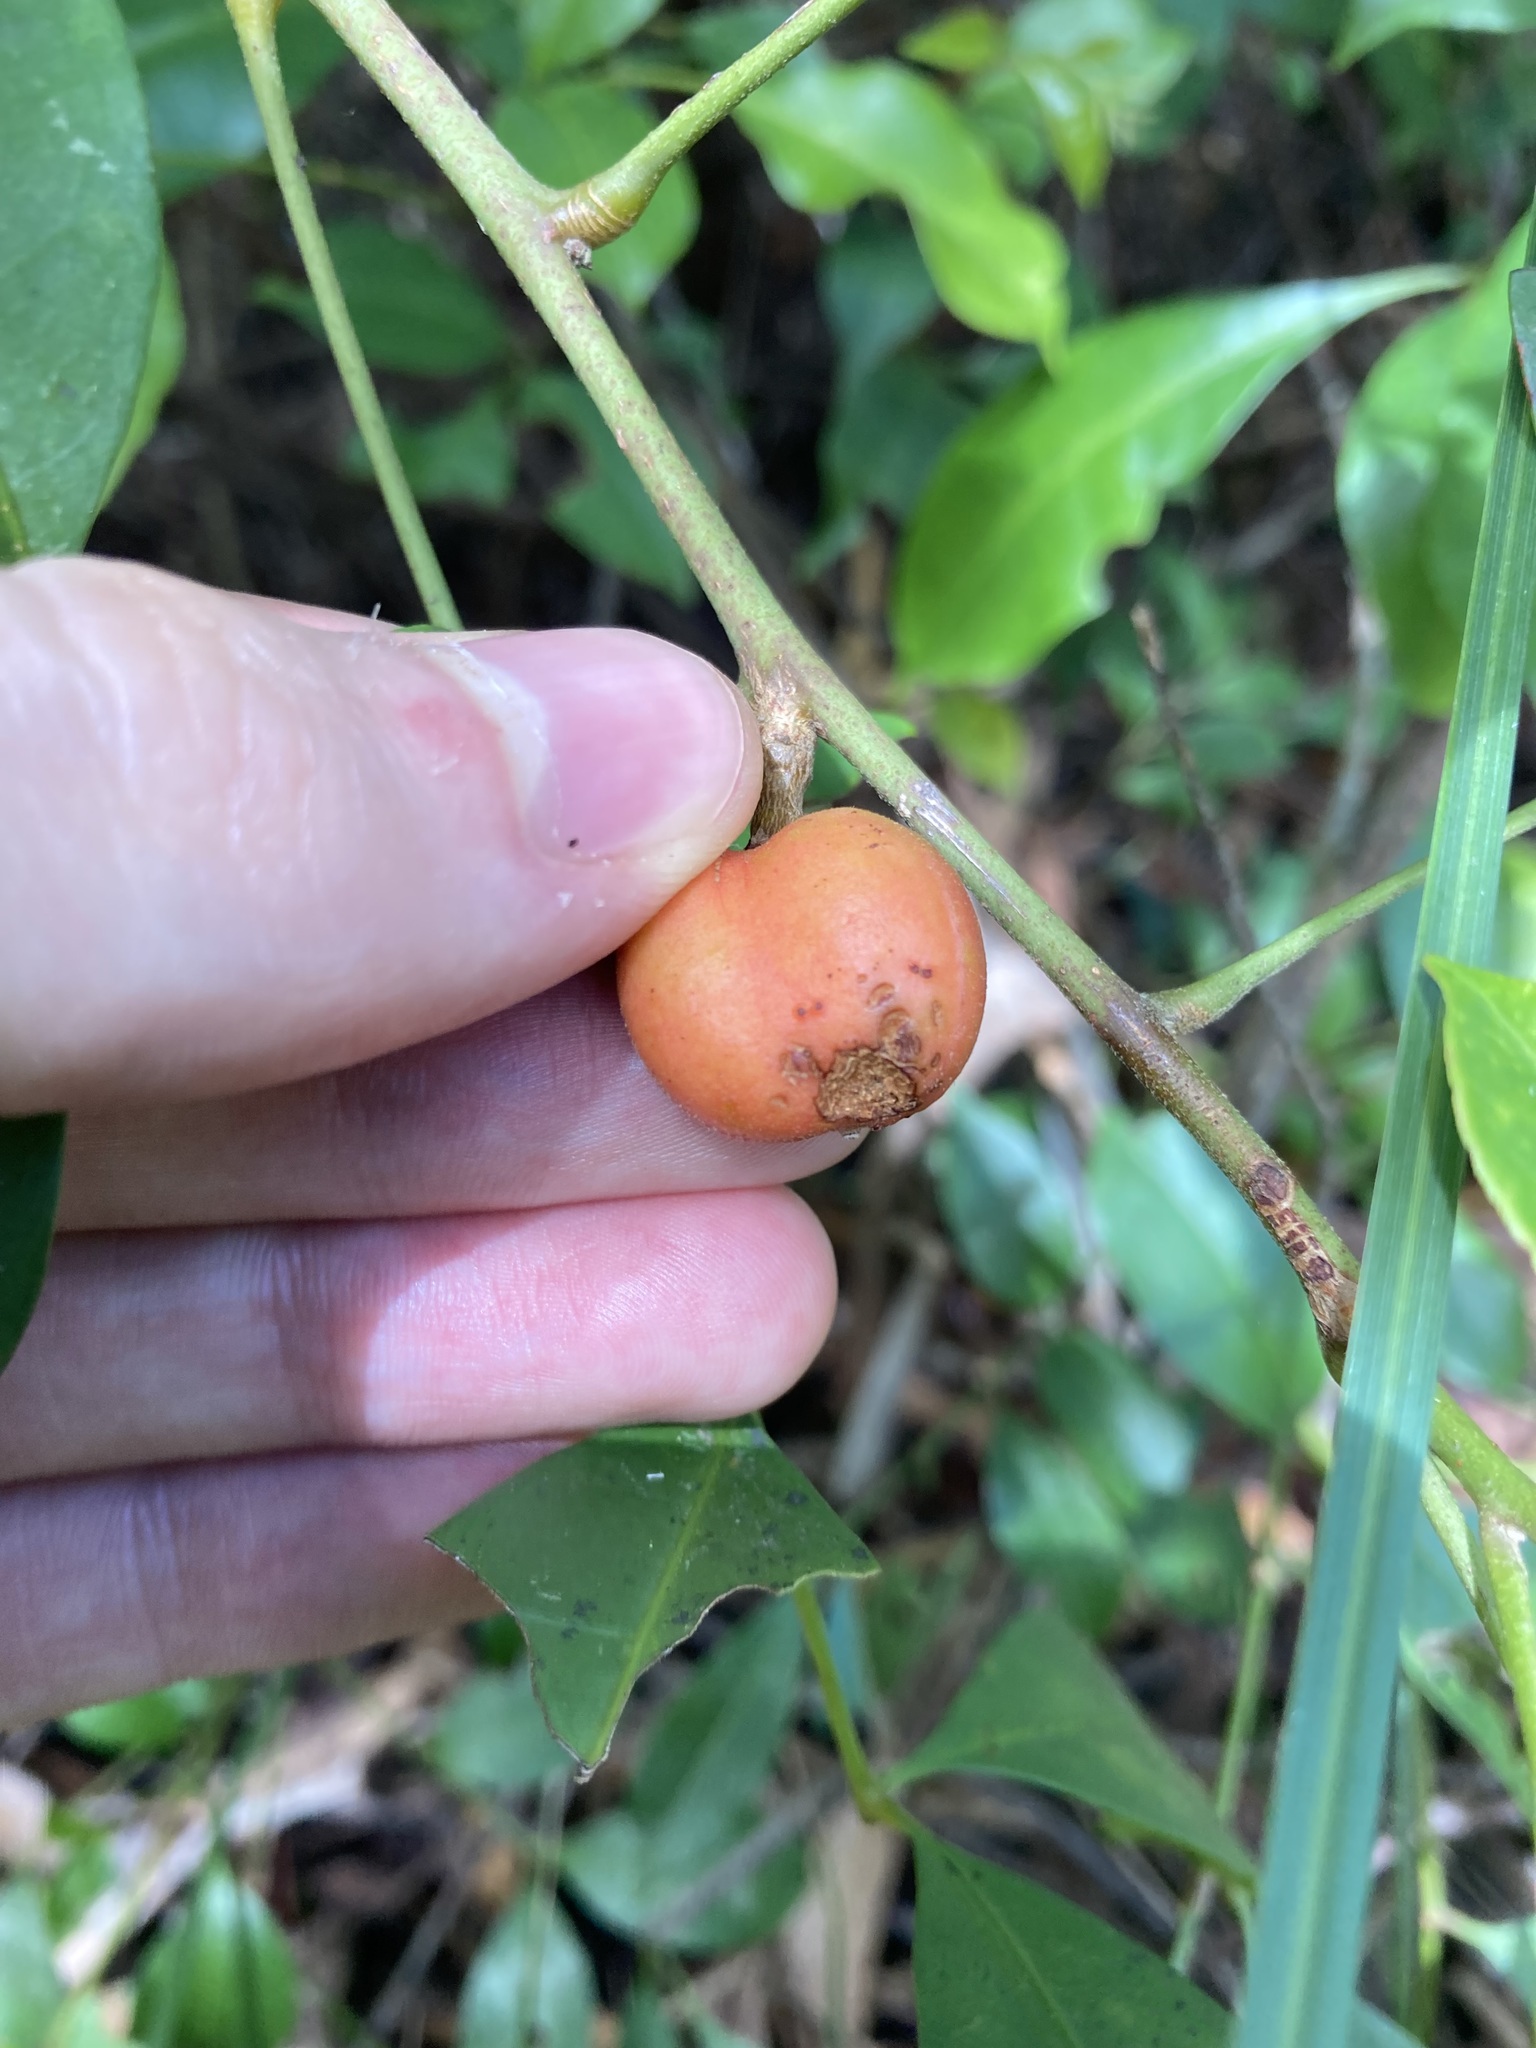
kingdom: Plantae
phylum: Tracheophyta
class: Magnoliopsida
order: Sapindales
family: Meliaceae
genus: Synoum
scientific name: Synoum glandulosum
